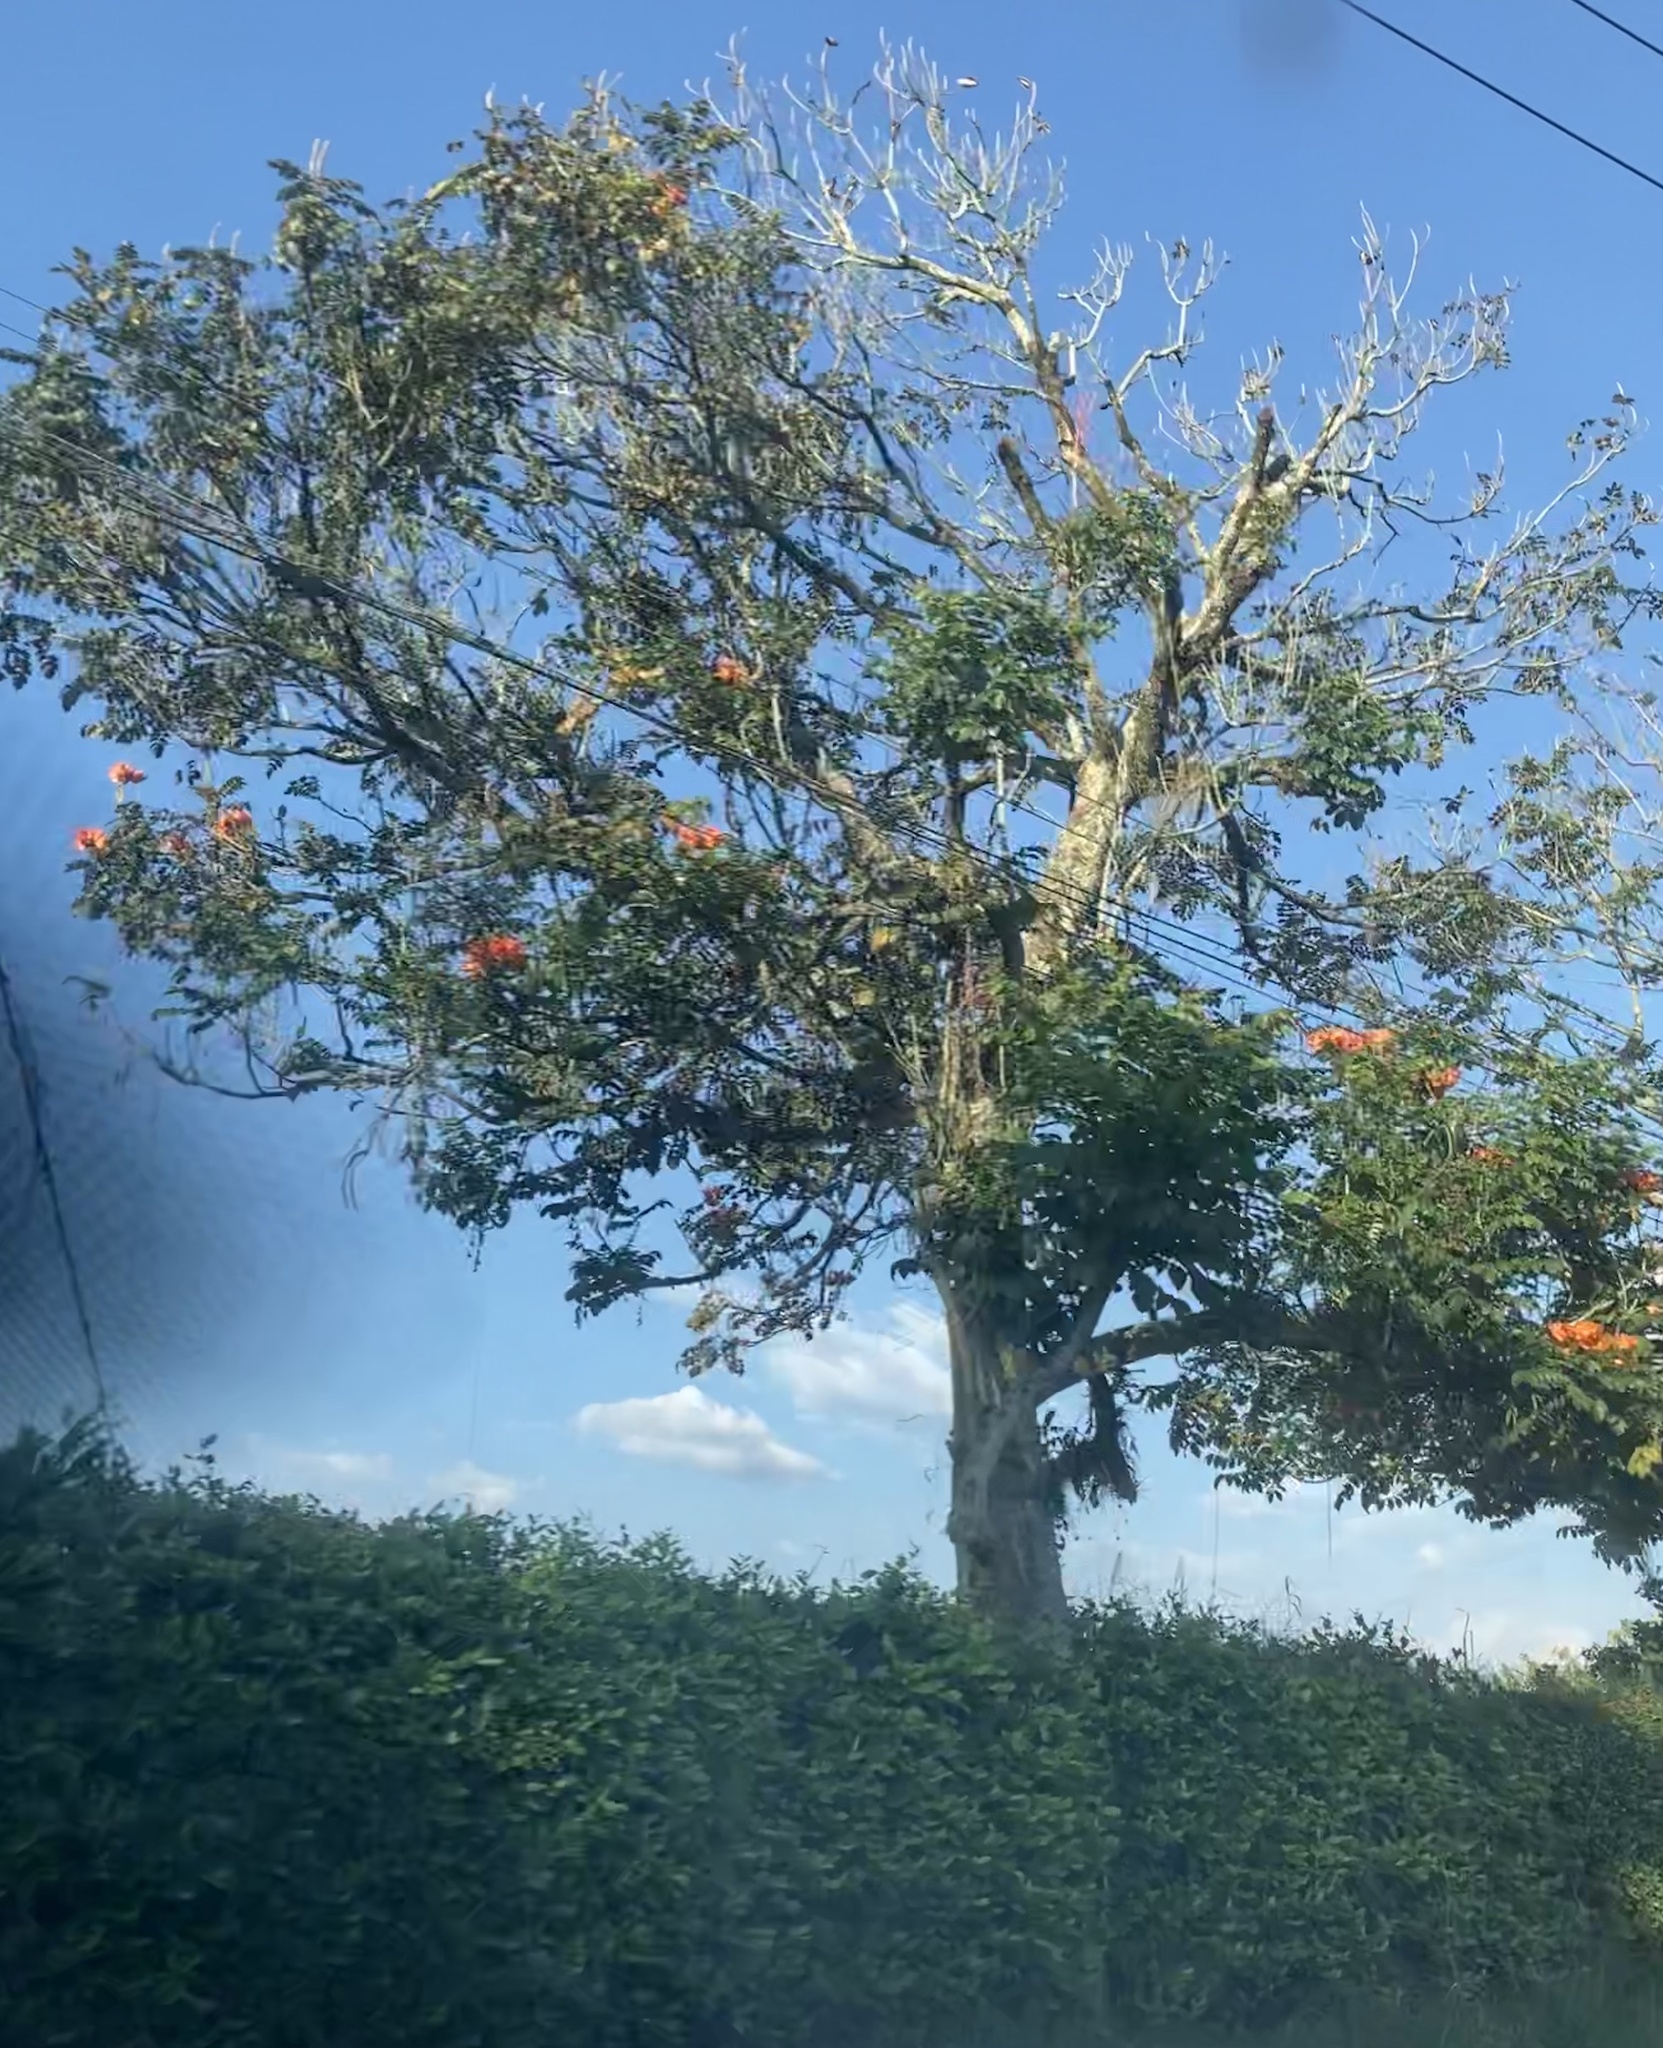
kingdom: Plantae
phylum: Tracheophyta
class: Magnoliopsida
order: Lamiales
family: Bignoniaceae
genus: Spathodea
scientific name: Spathodea campanulata
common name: African tuliptree
